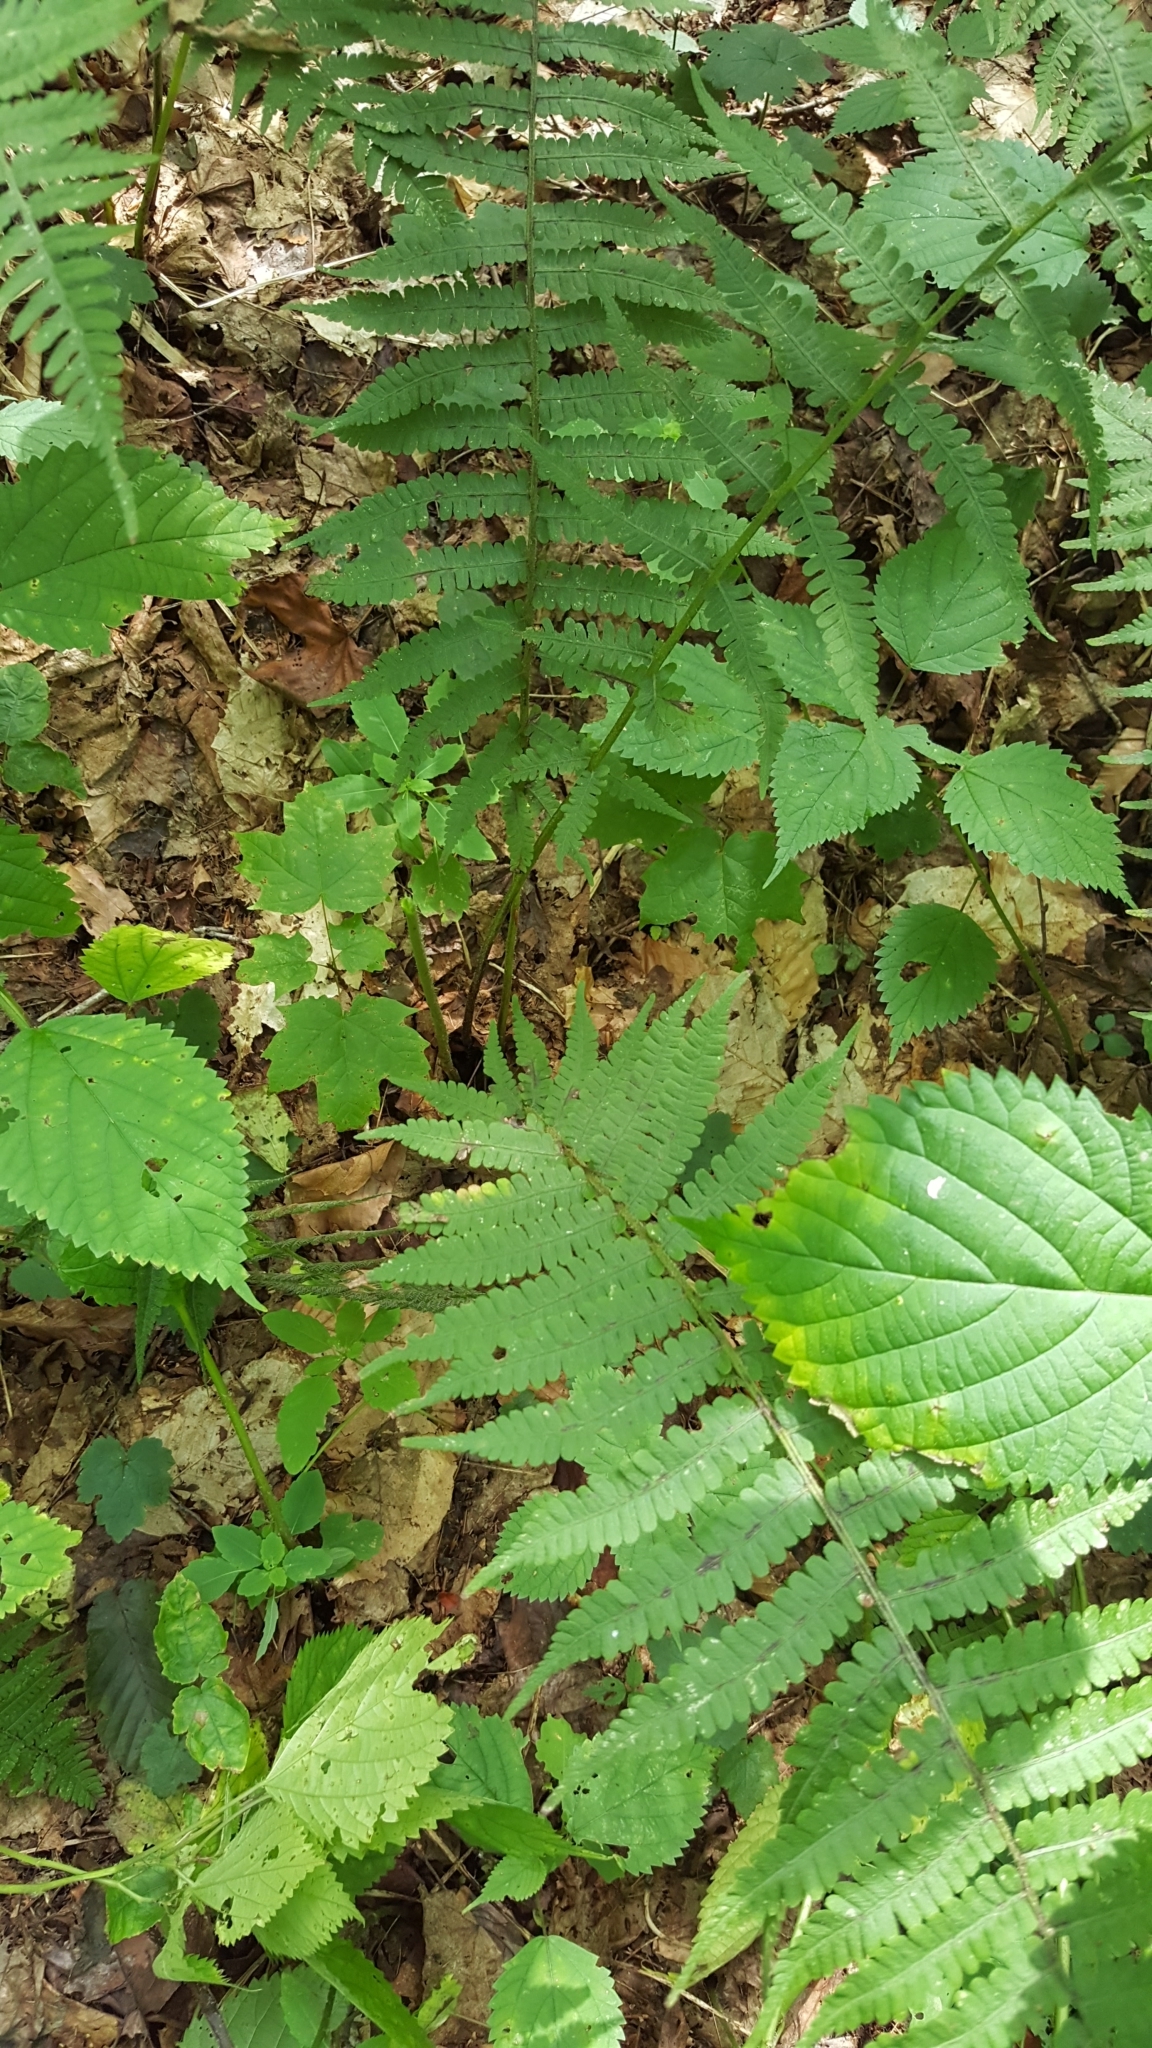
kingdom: Plantae
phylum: Tracheophyta
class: Polypodiopsida
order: Polypodiales
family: Athyriaceae
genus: Deparia
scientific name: Deparia acrostichoides
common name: Silver false spleenwort
